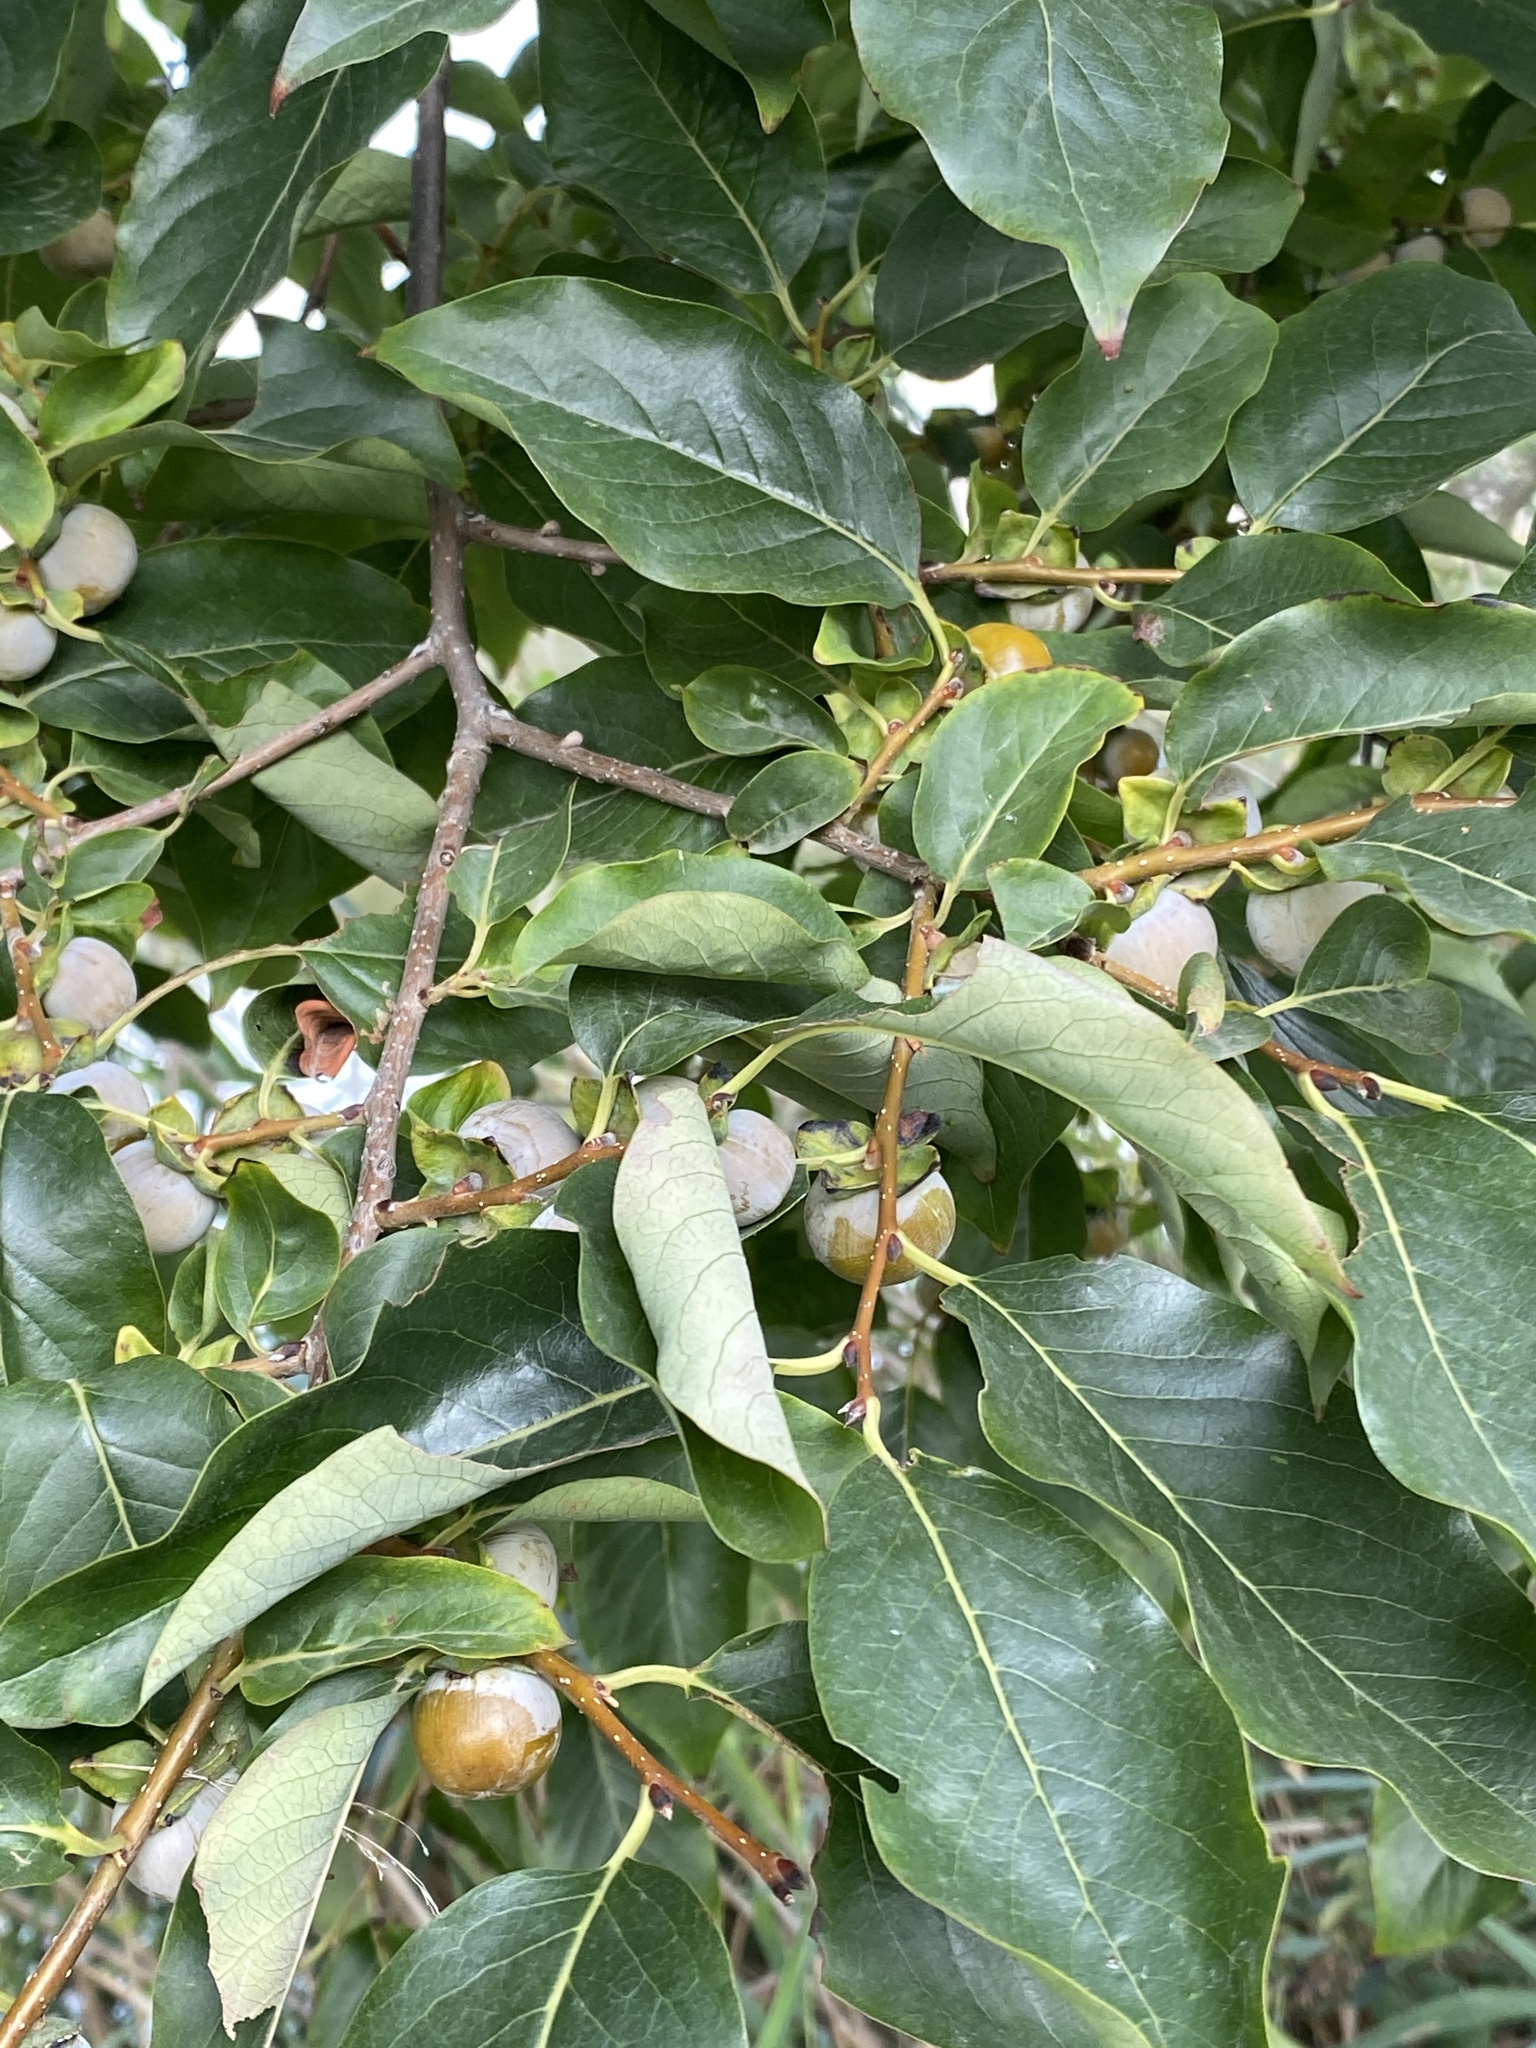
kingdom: Plantae
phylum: Tracheophyta
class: Magnoliopsida
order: Ericales
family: Ebenaceae
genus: Diospyros
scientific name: Diospyros lotus
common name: Date-plum
